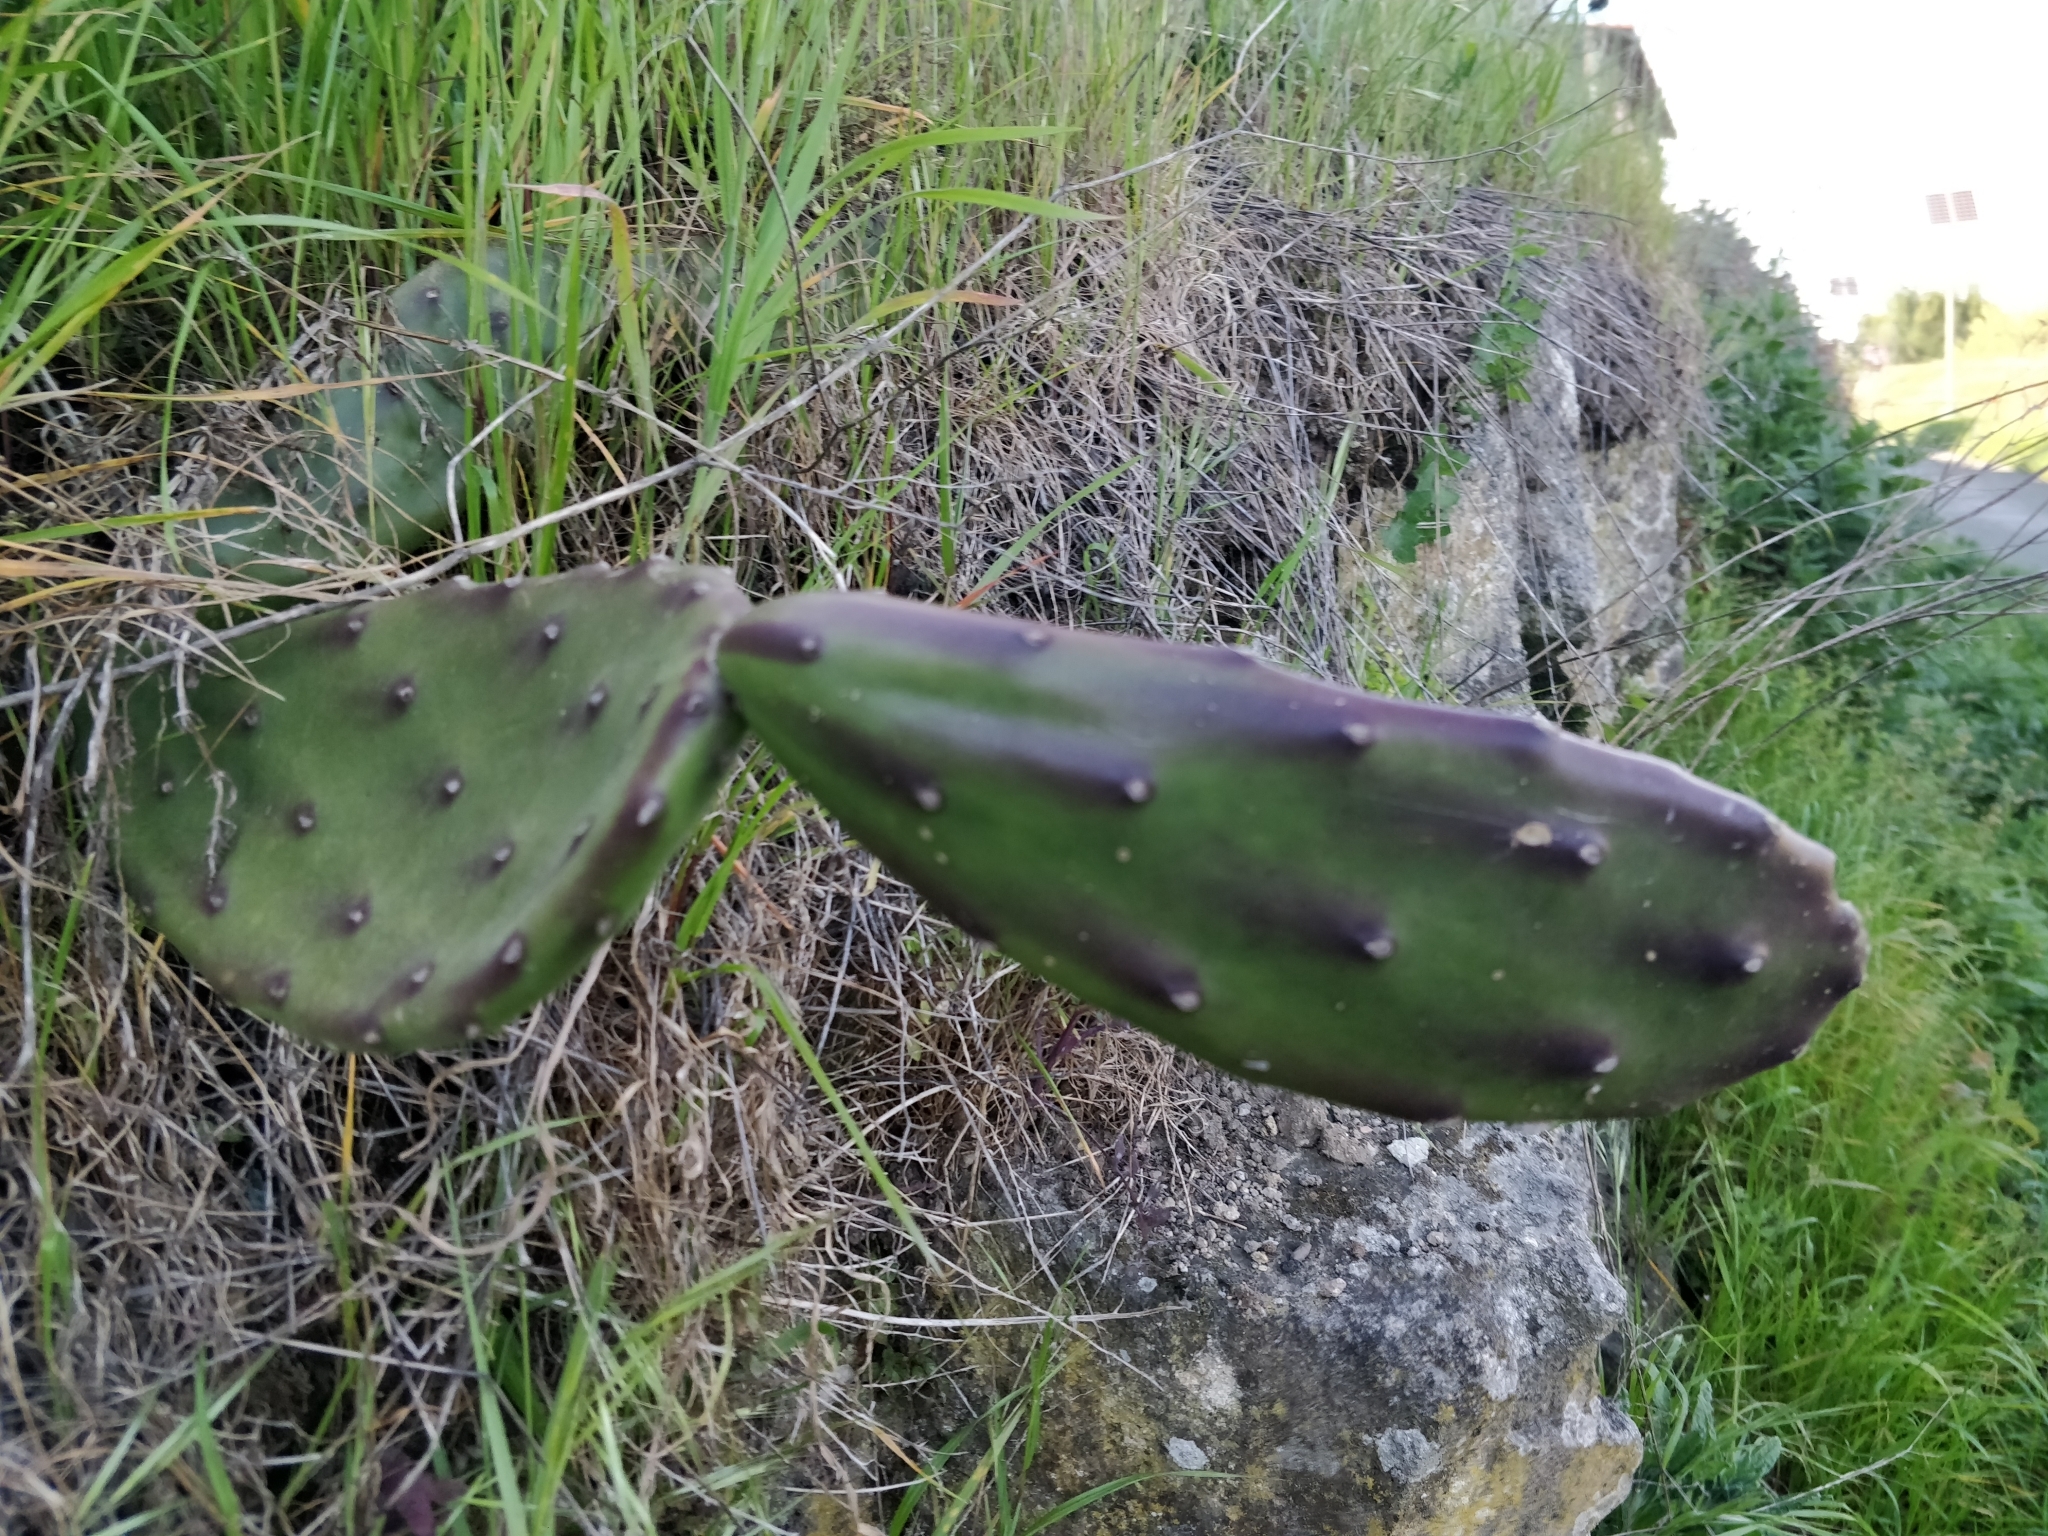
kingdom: Plantae
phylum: Tracheophyta
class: Magnoliopsida
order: Caryophyllales
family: Cactaceae
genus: Opuntia
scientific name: Opuntia elata
